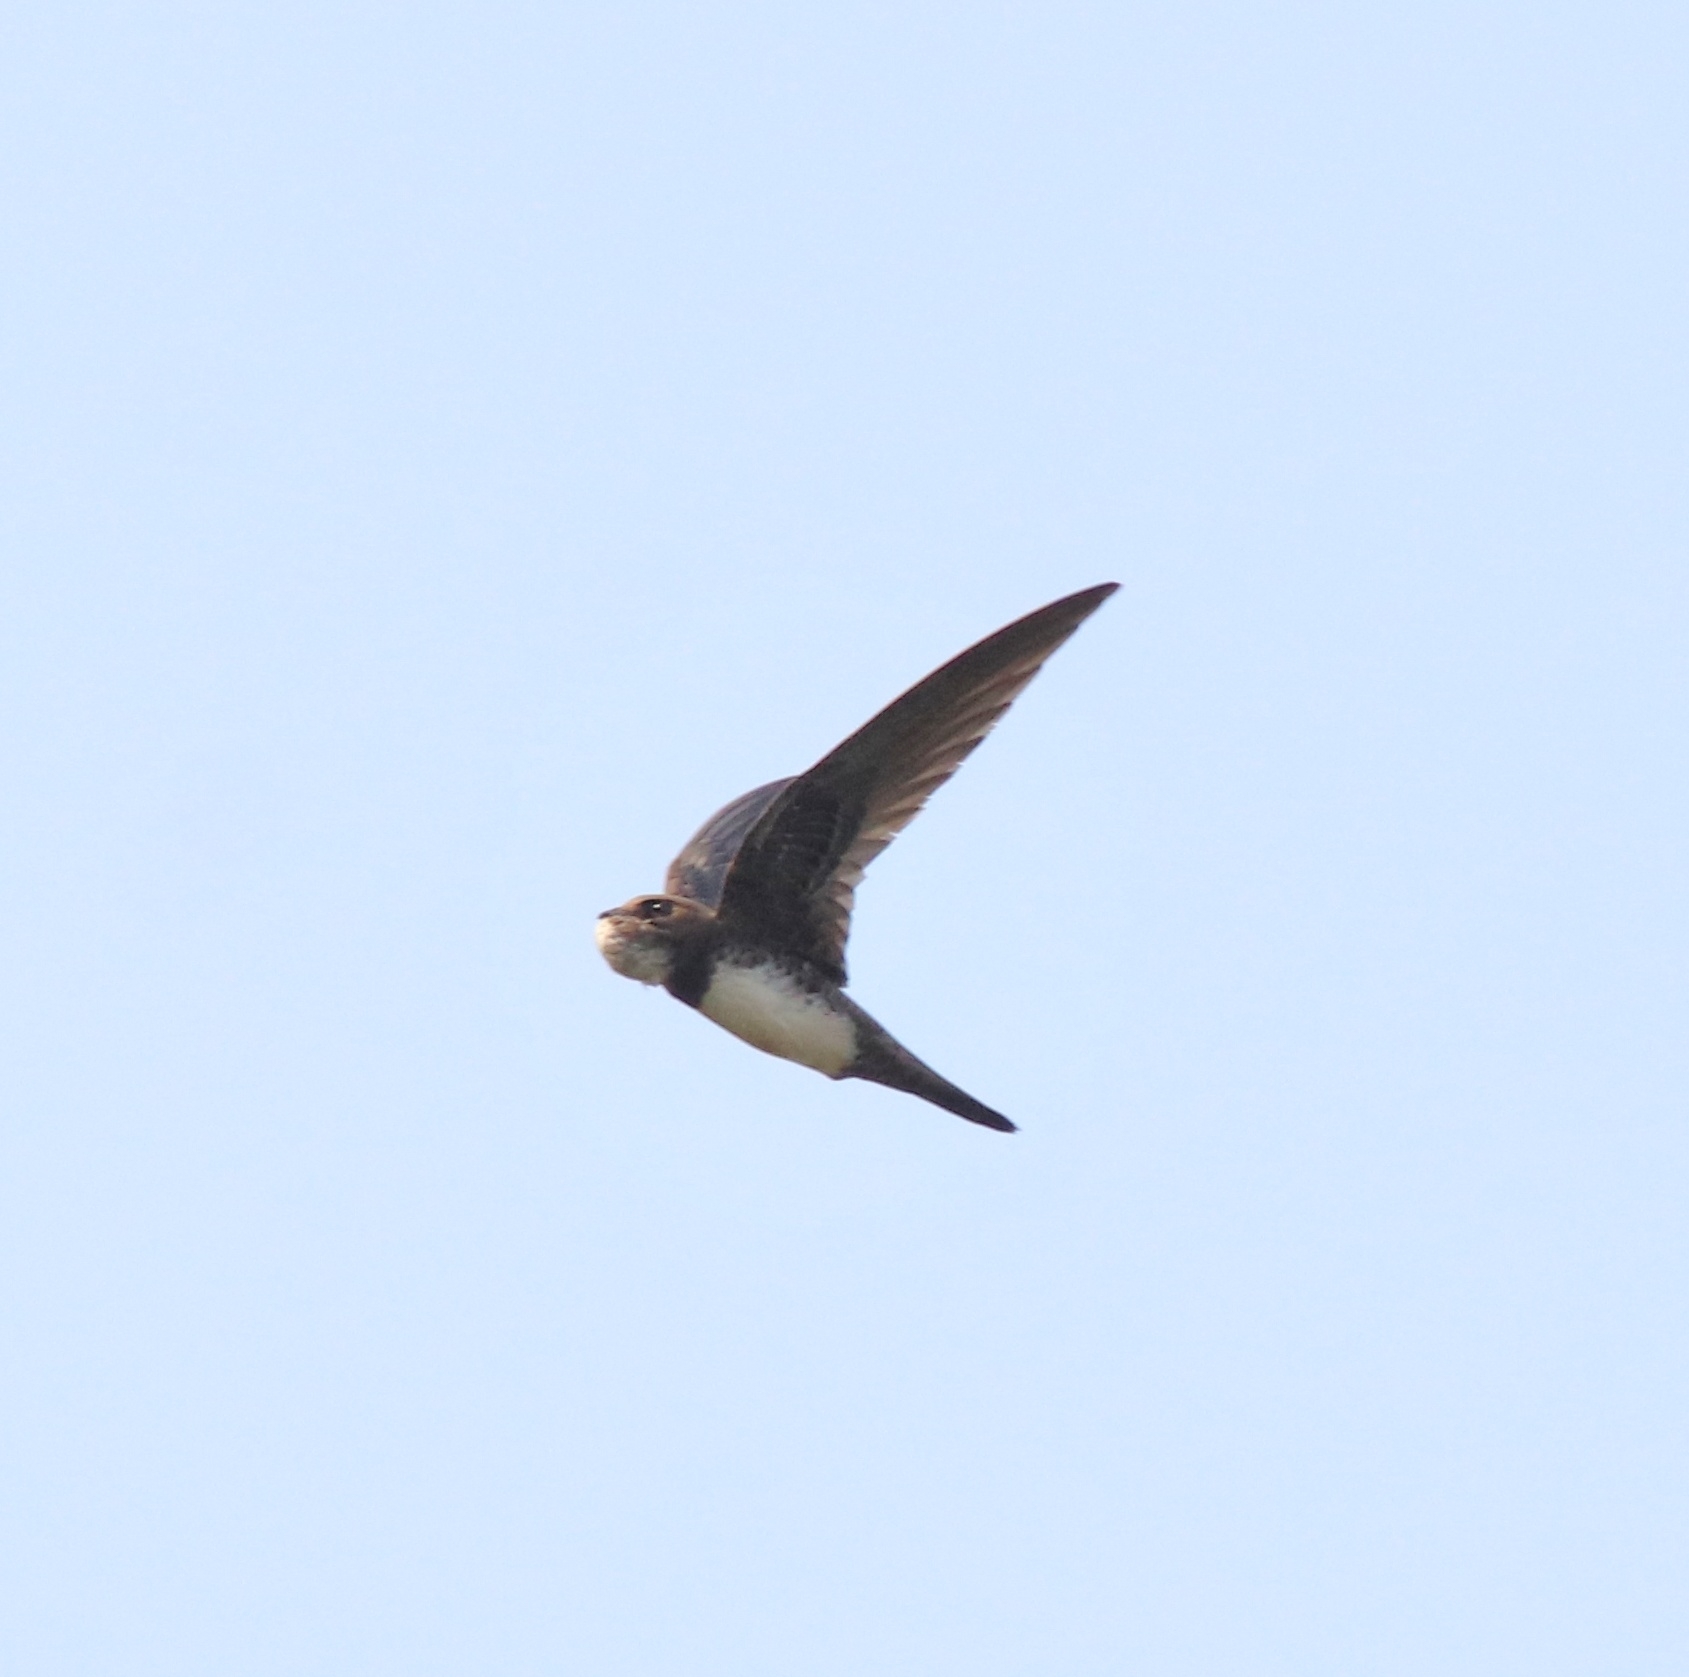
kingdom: Animalia
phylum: Chordata
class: Aves
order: Apodiformes
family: Apodidae
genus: Tachymarptis
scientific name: Tachymarptis melba
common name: Alpine swift
